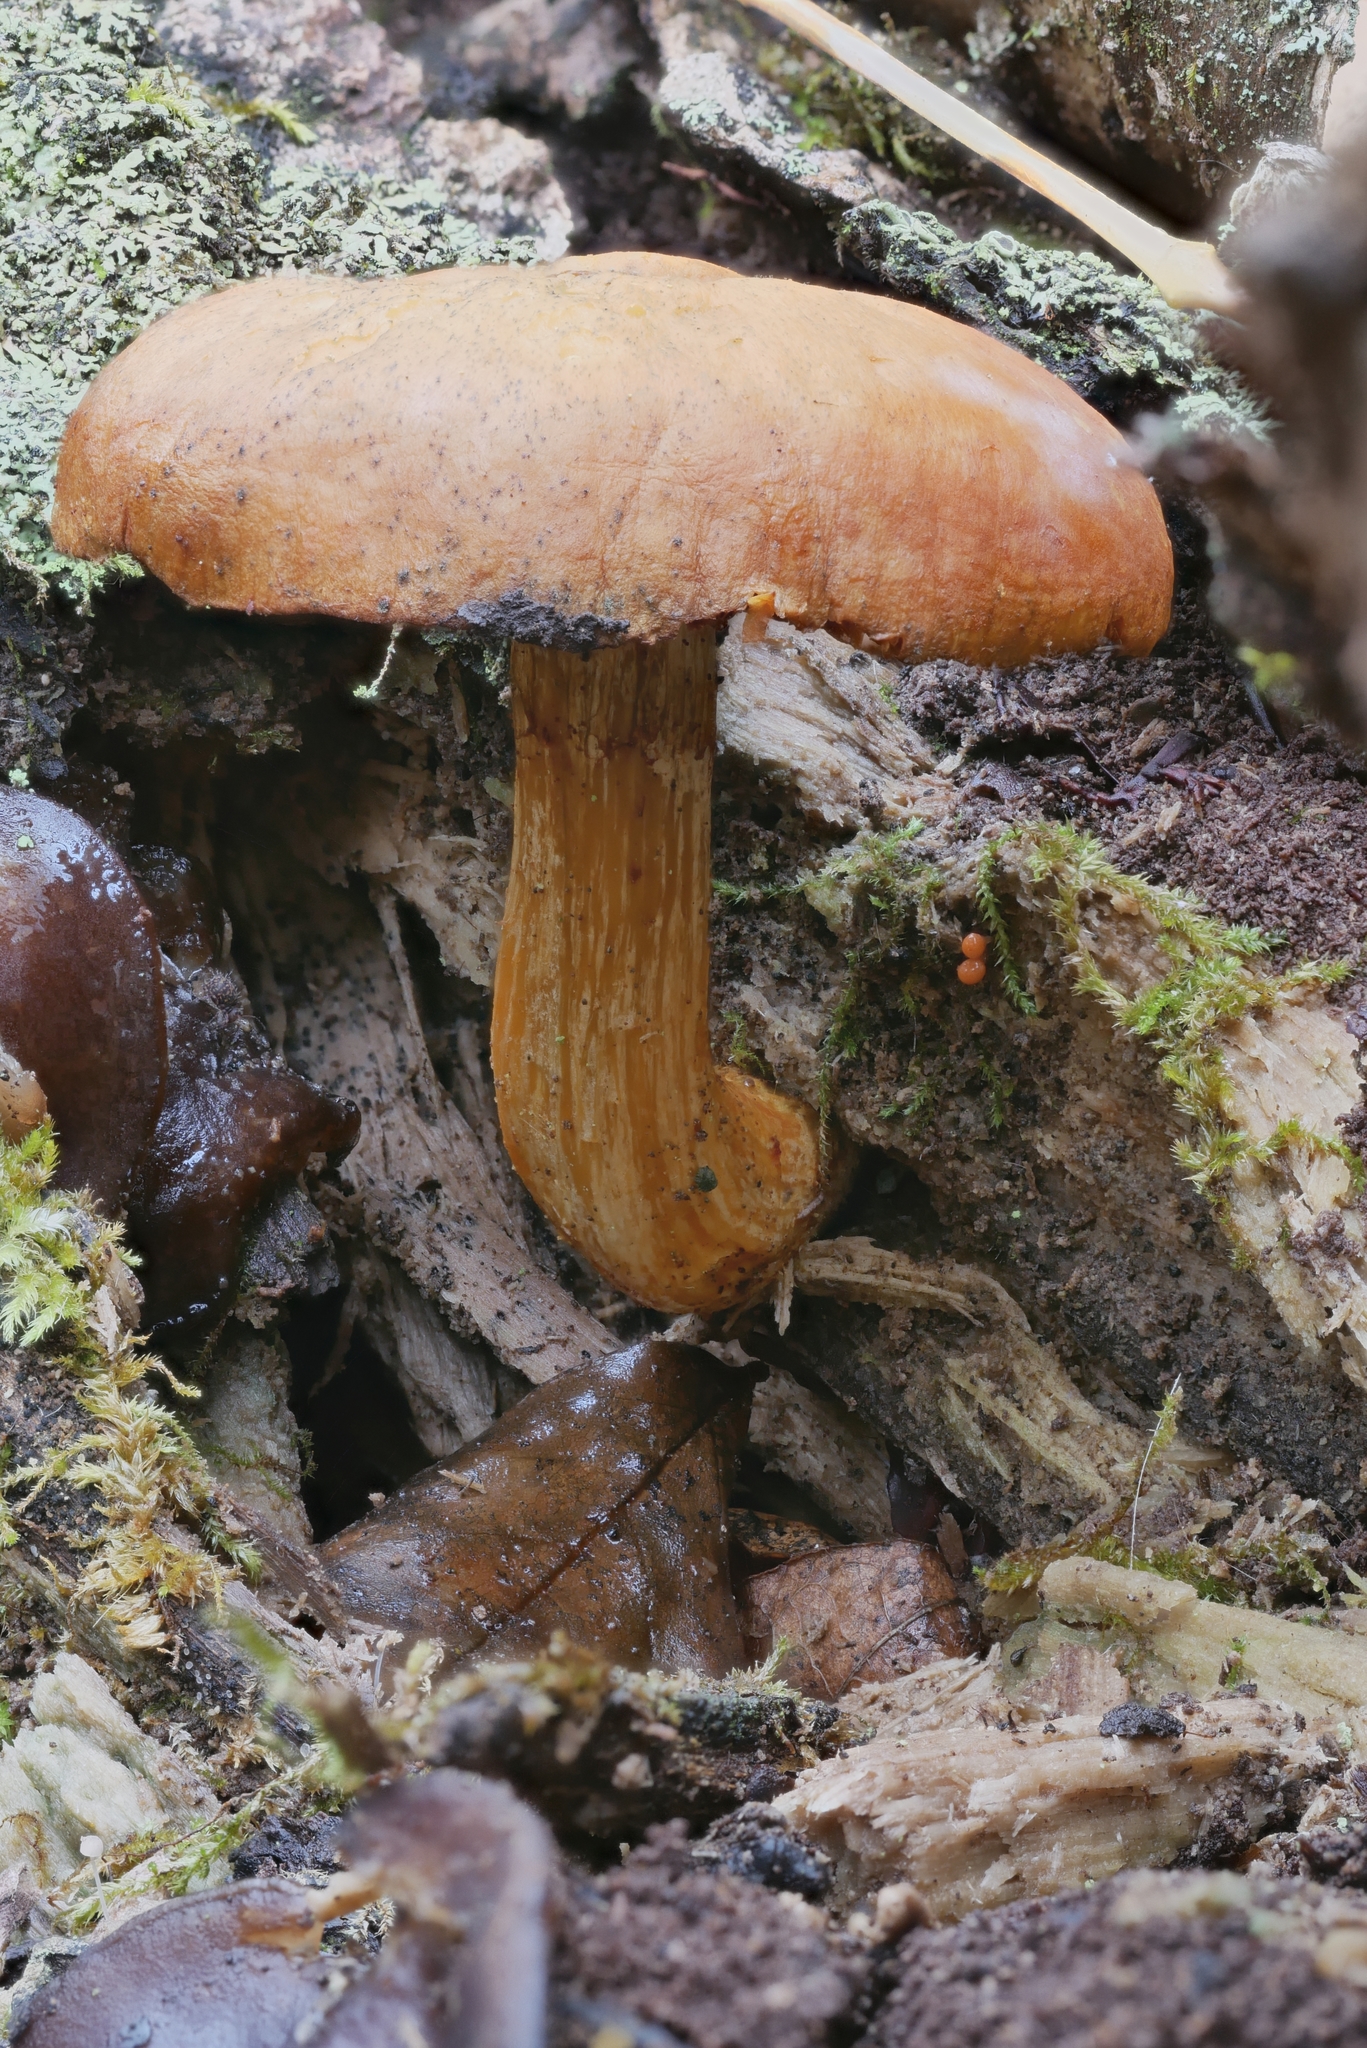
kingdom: Fungi
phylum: Basidiomycota
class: Agaricomycetes
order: Agaricales
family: Hymenogastraceae
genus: Gymnopilus
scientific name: Gymnopilus luteus
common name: Yellow gymnopilus
